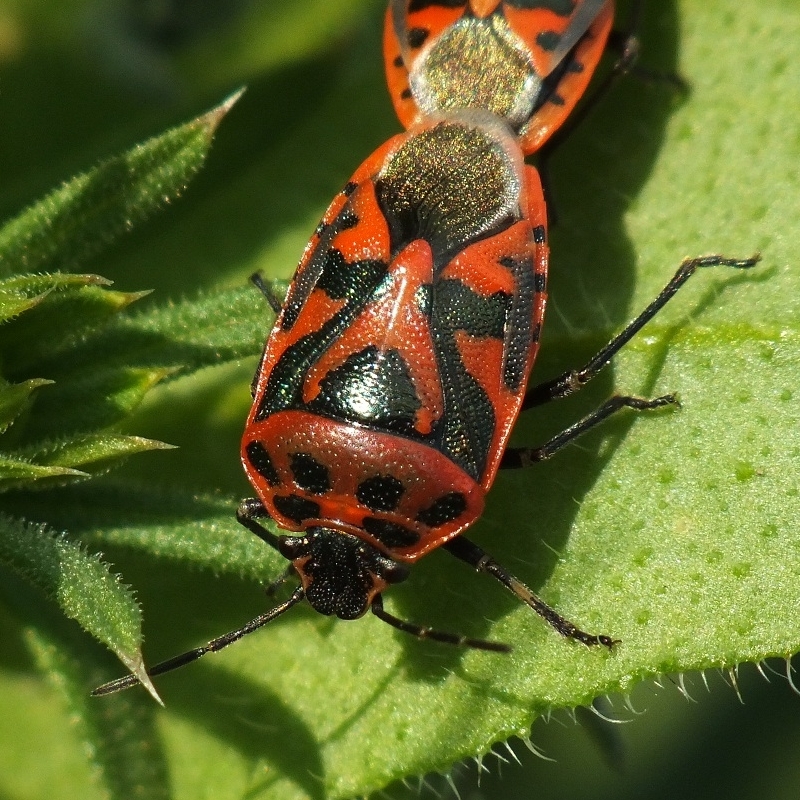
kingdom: Animalia
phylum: Arthropoda
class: Insecta
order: Hemiptera
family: Pentatomidae
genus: Eurydema
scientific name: Eurydema ornata
